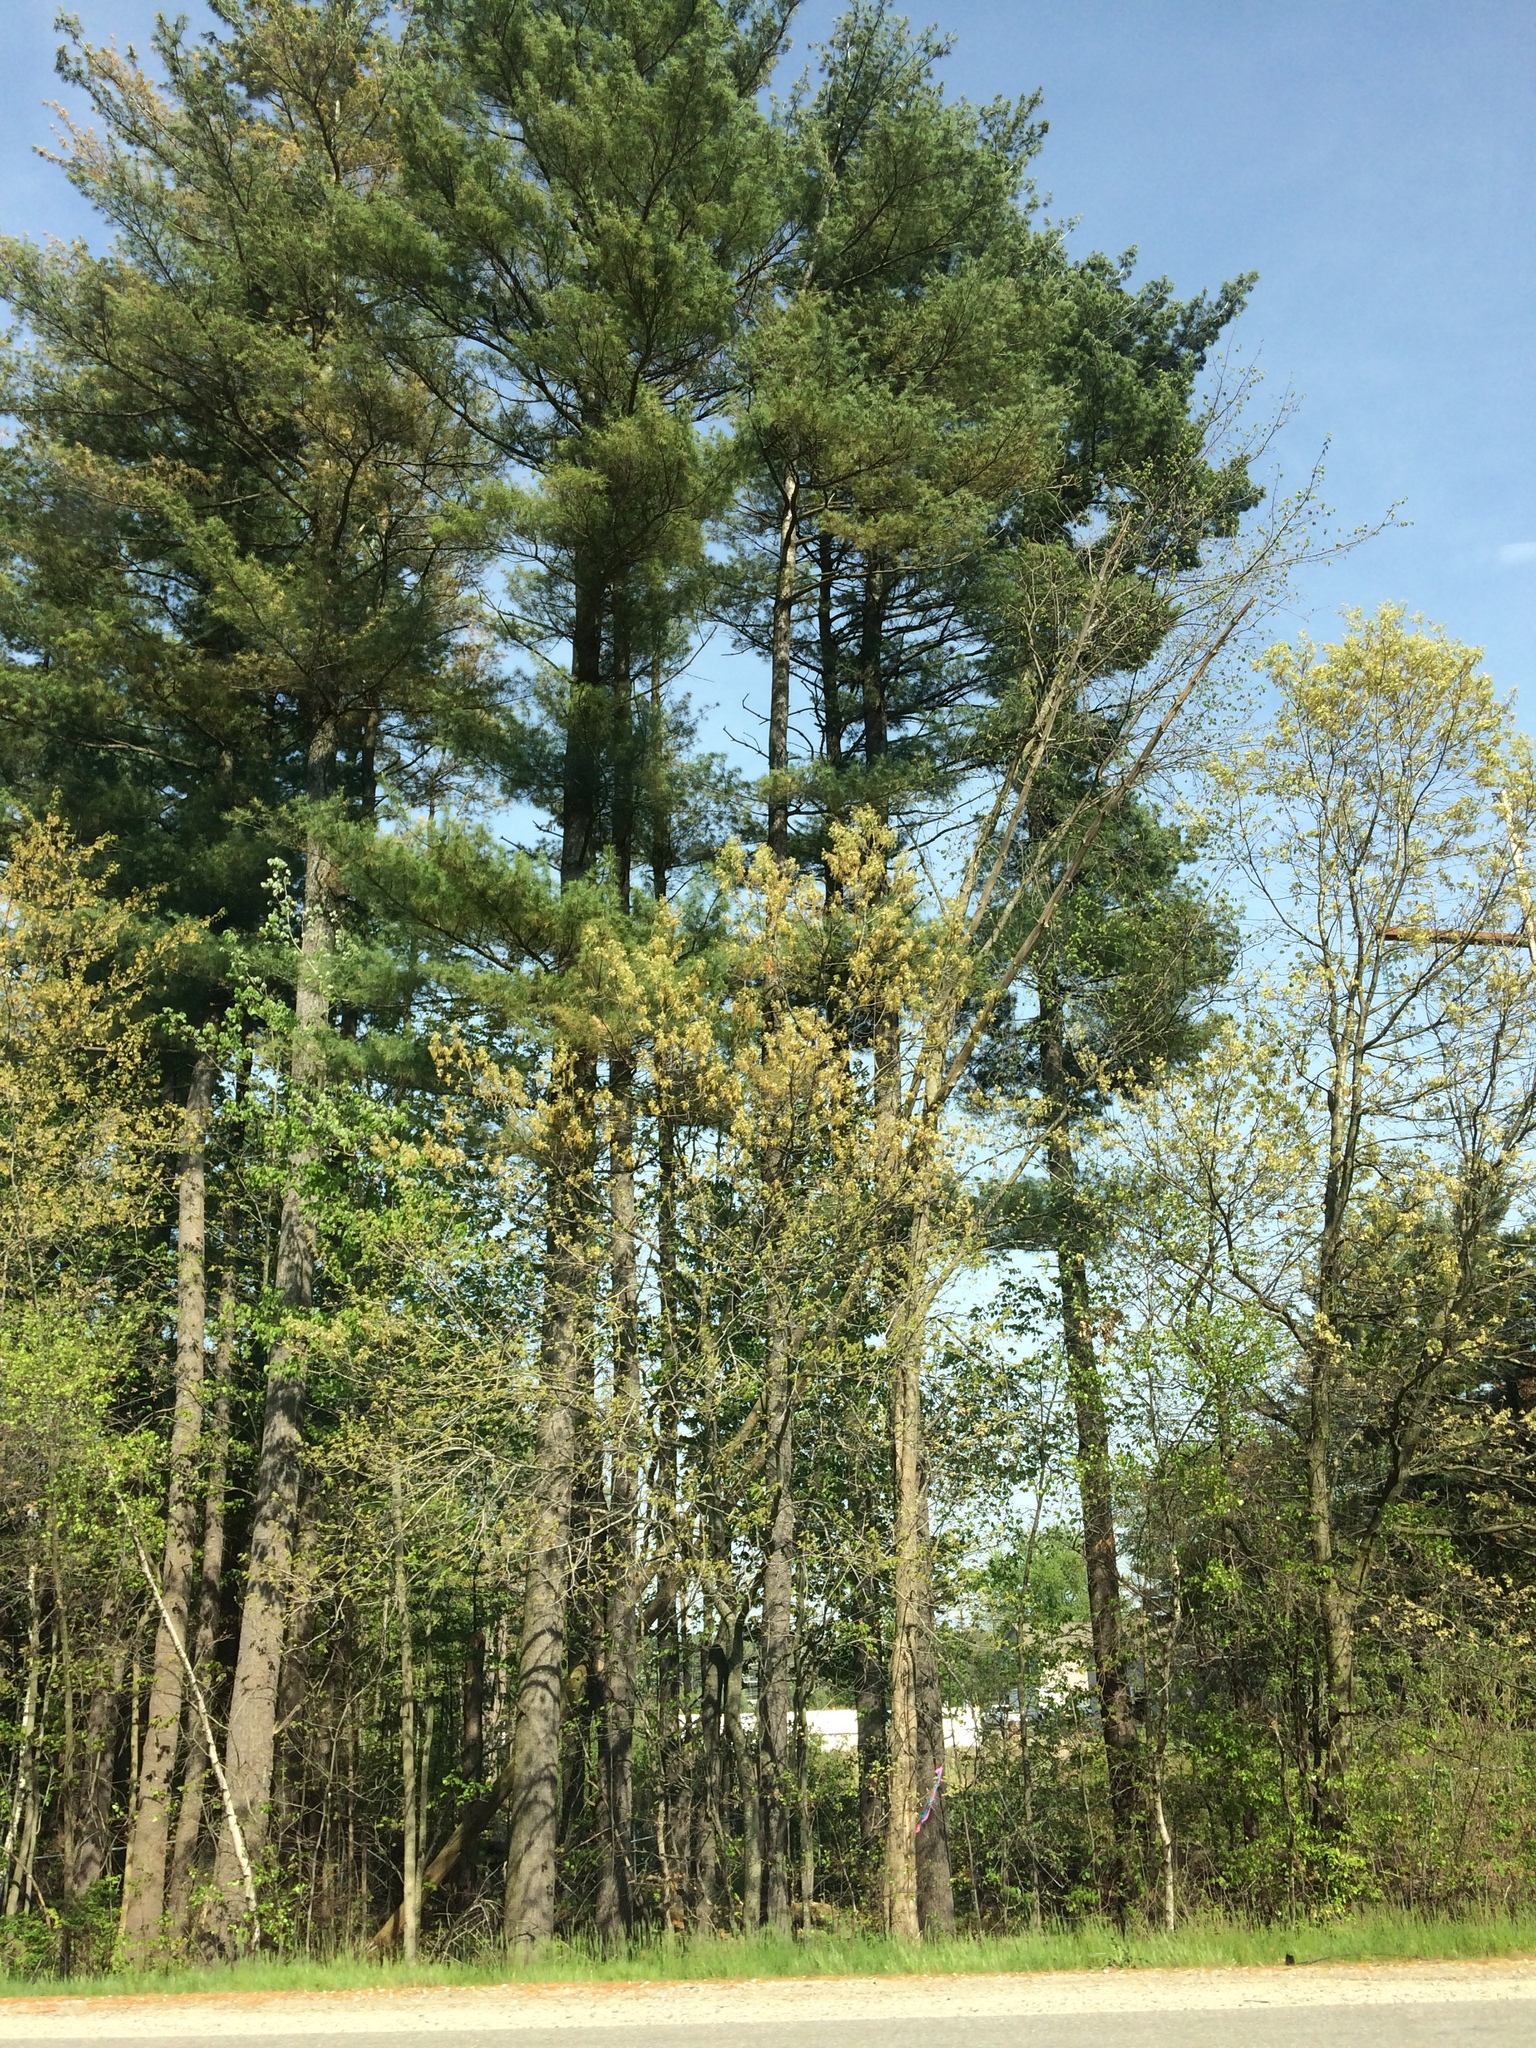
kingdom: Plantae
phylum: Tracheophyta
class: Pinopsida
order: Pinales
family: Pinaceae
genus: Pinus
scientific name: Pinus strobus
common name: Weymouth pine
